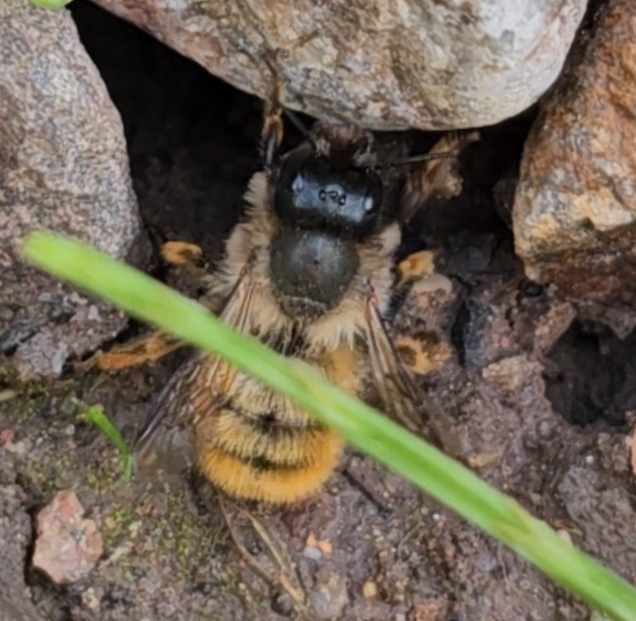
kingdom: Animalia
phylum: Arthropoda
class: Insecta
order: Hymenoptera
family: Megachilidae
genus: Osmia
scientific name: Osmia bicornis
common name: Red mason bee
